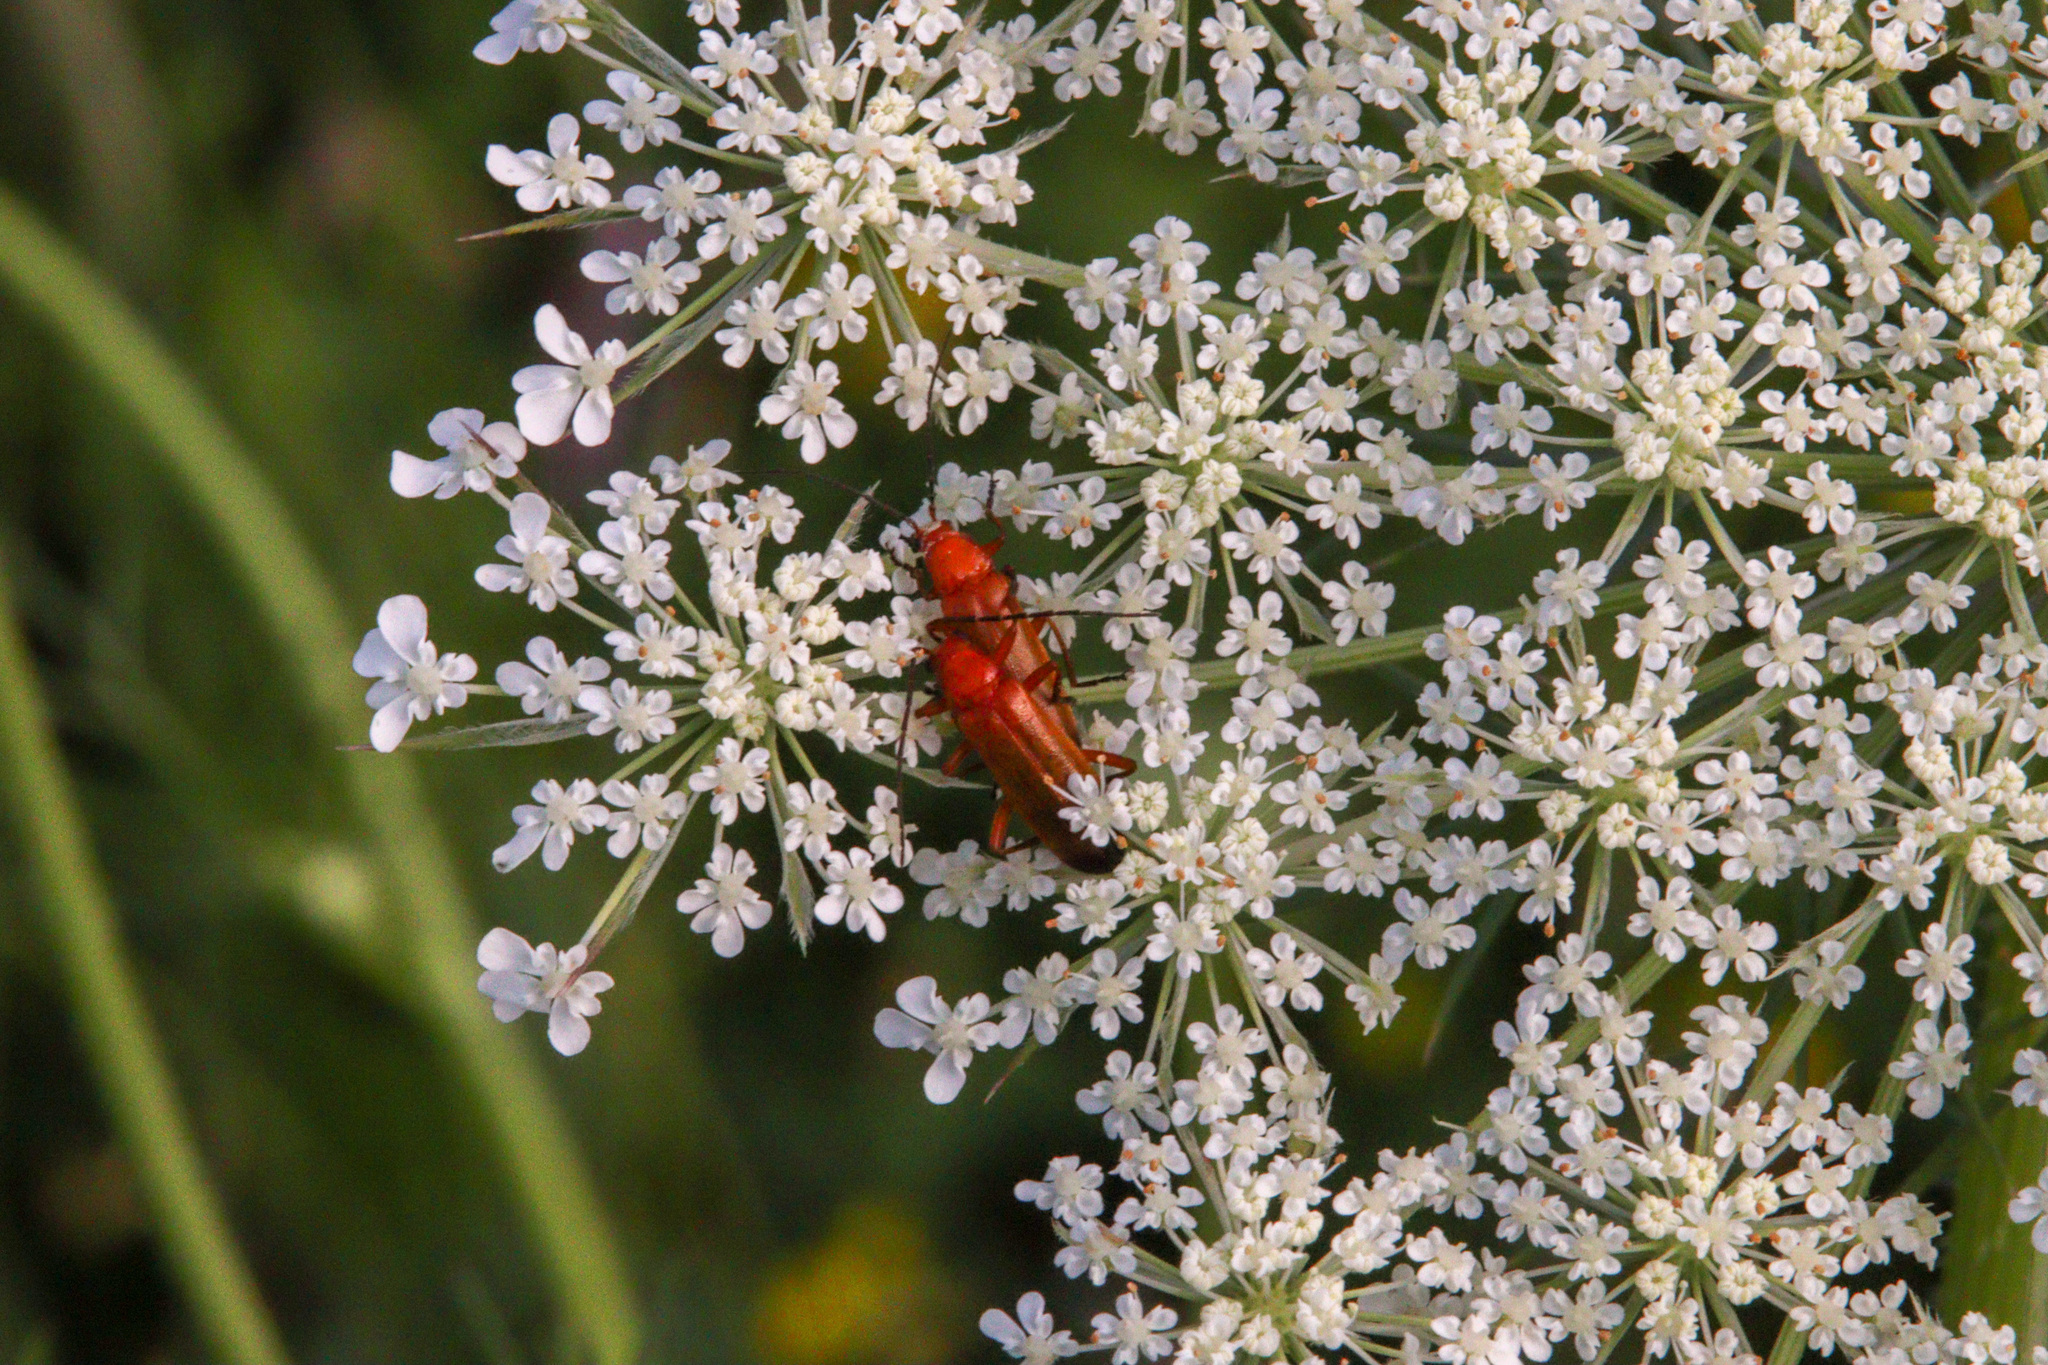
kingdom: Animalia
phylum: Arthropoda
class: Insecta
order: Coleoptera
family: Cantharidae
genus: Rhagonycha
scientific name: Rhagonycha fulva
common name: Common red soldier beetle
